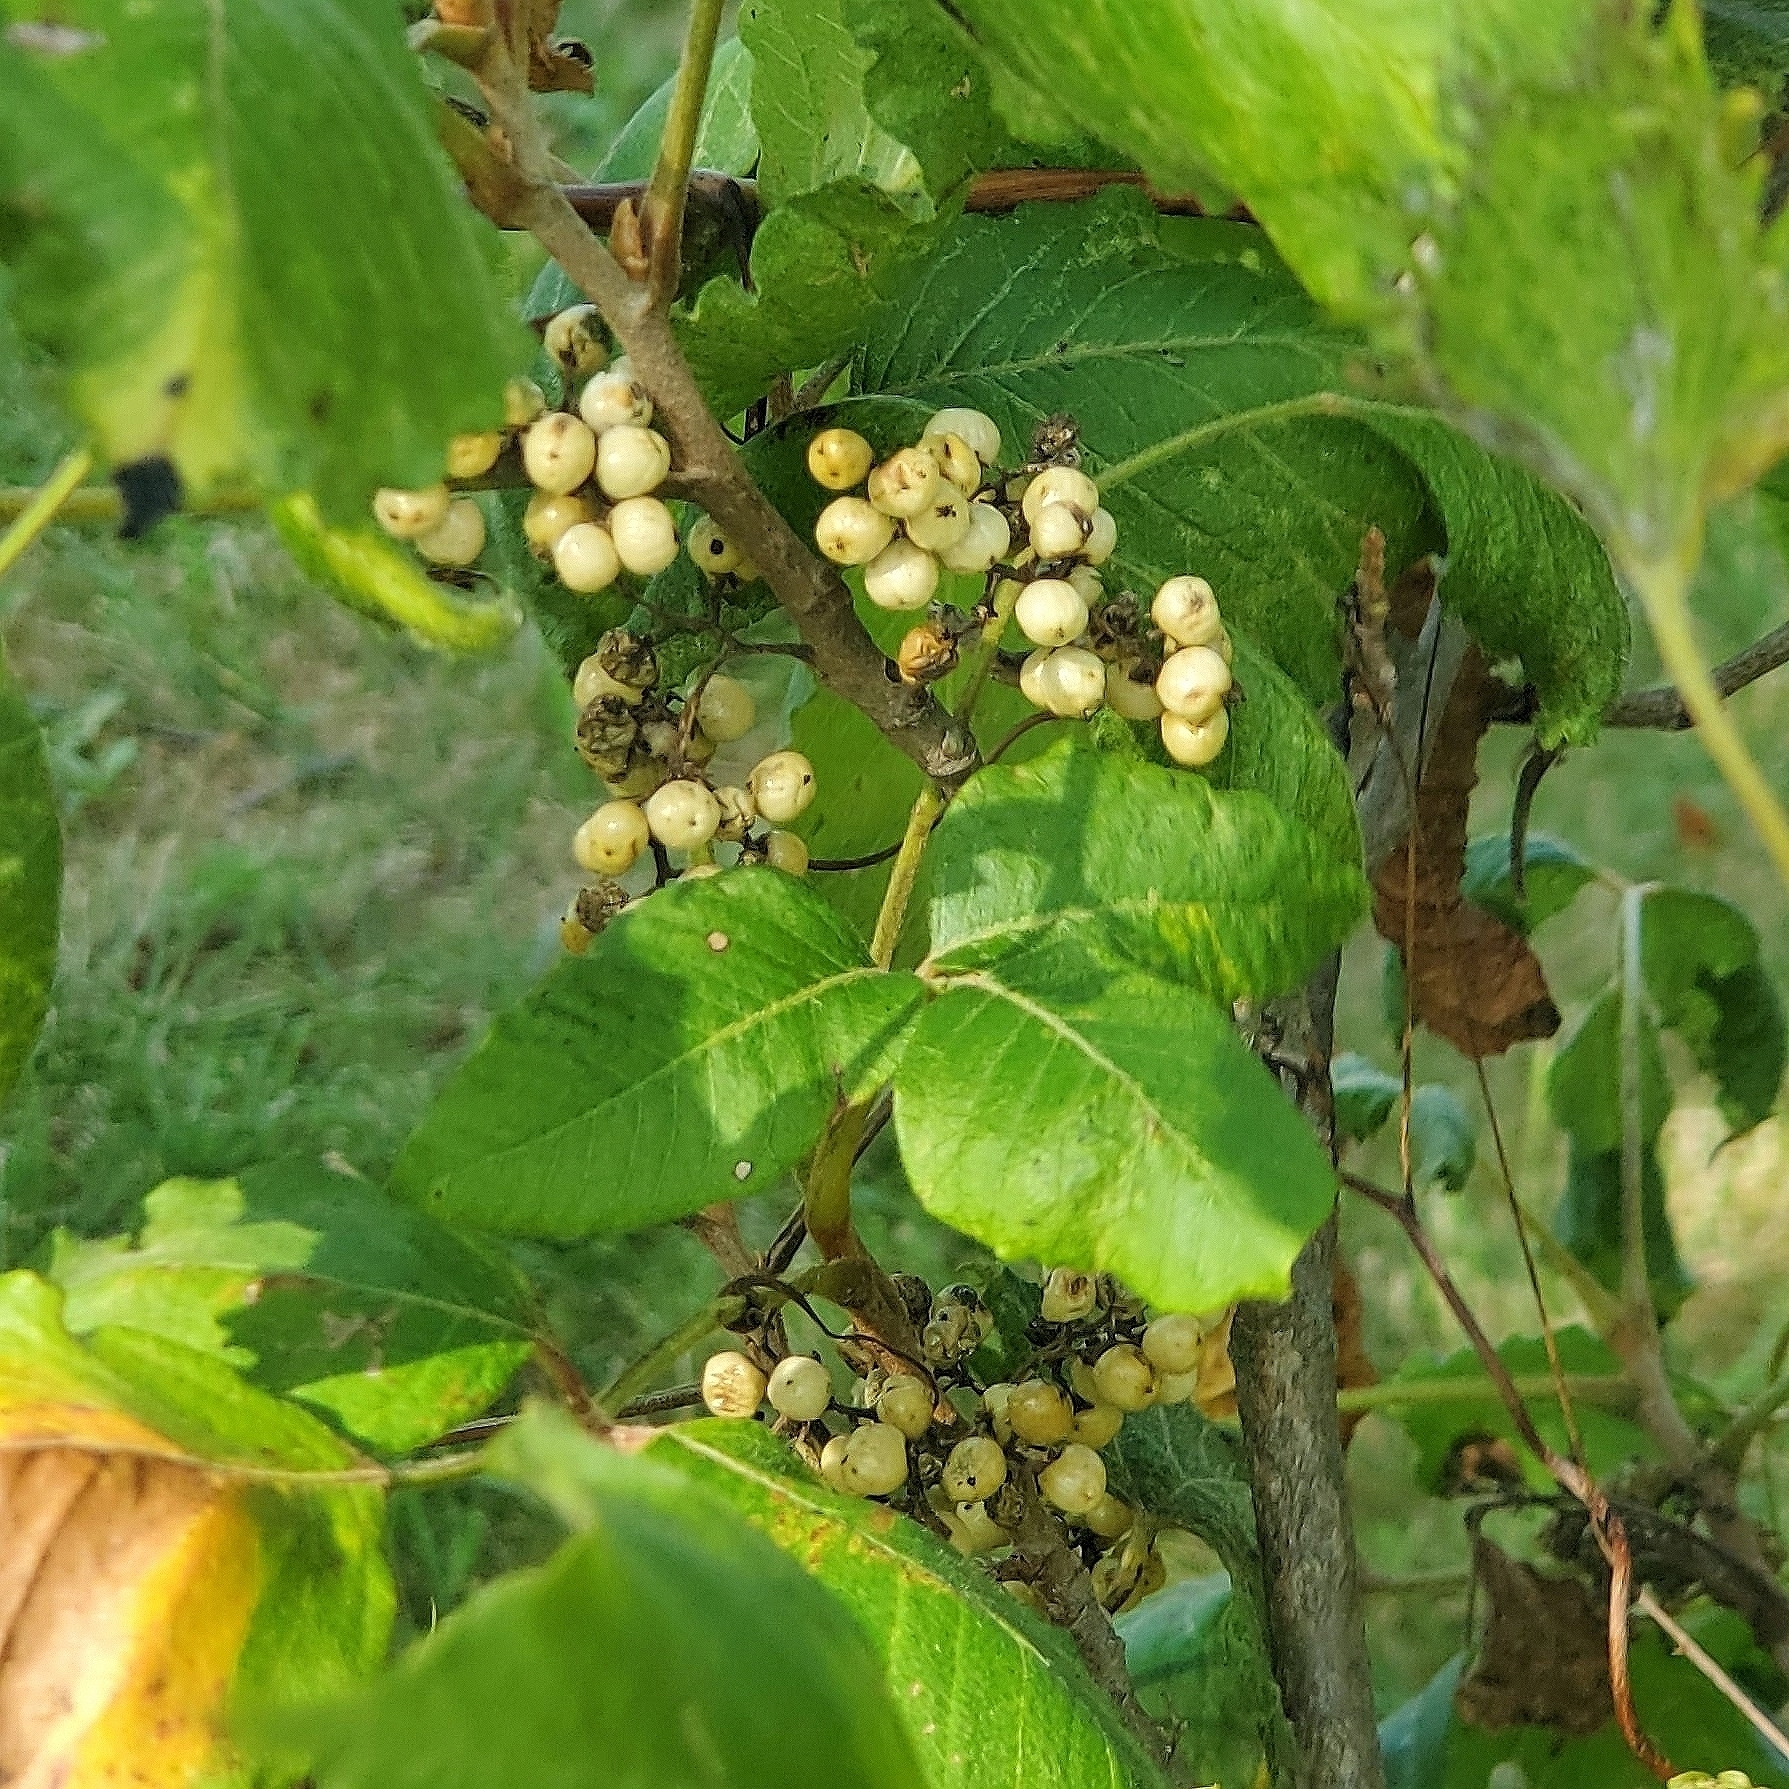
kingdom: Plantae
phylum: Tracheophyta
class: Magnoliopsida
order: Sapindales
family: Anacardiaceae
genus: Toxicodendron
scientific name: Toxicodendron radicans
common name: Poison ivy
